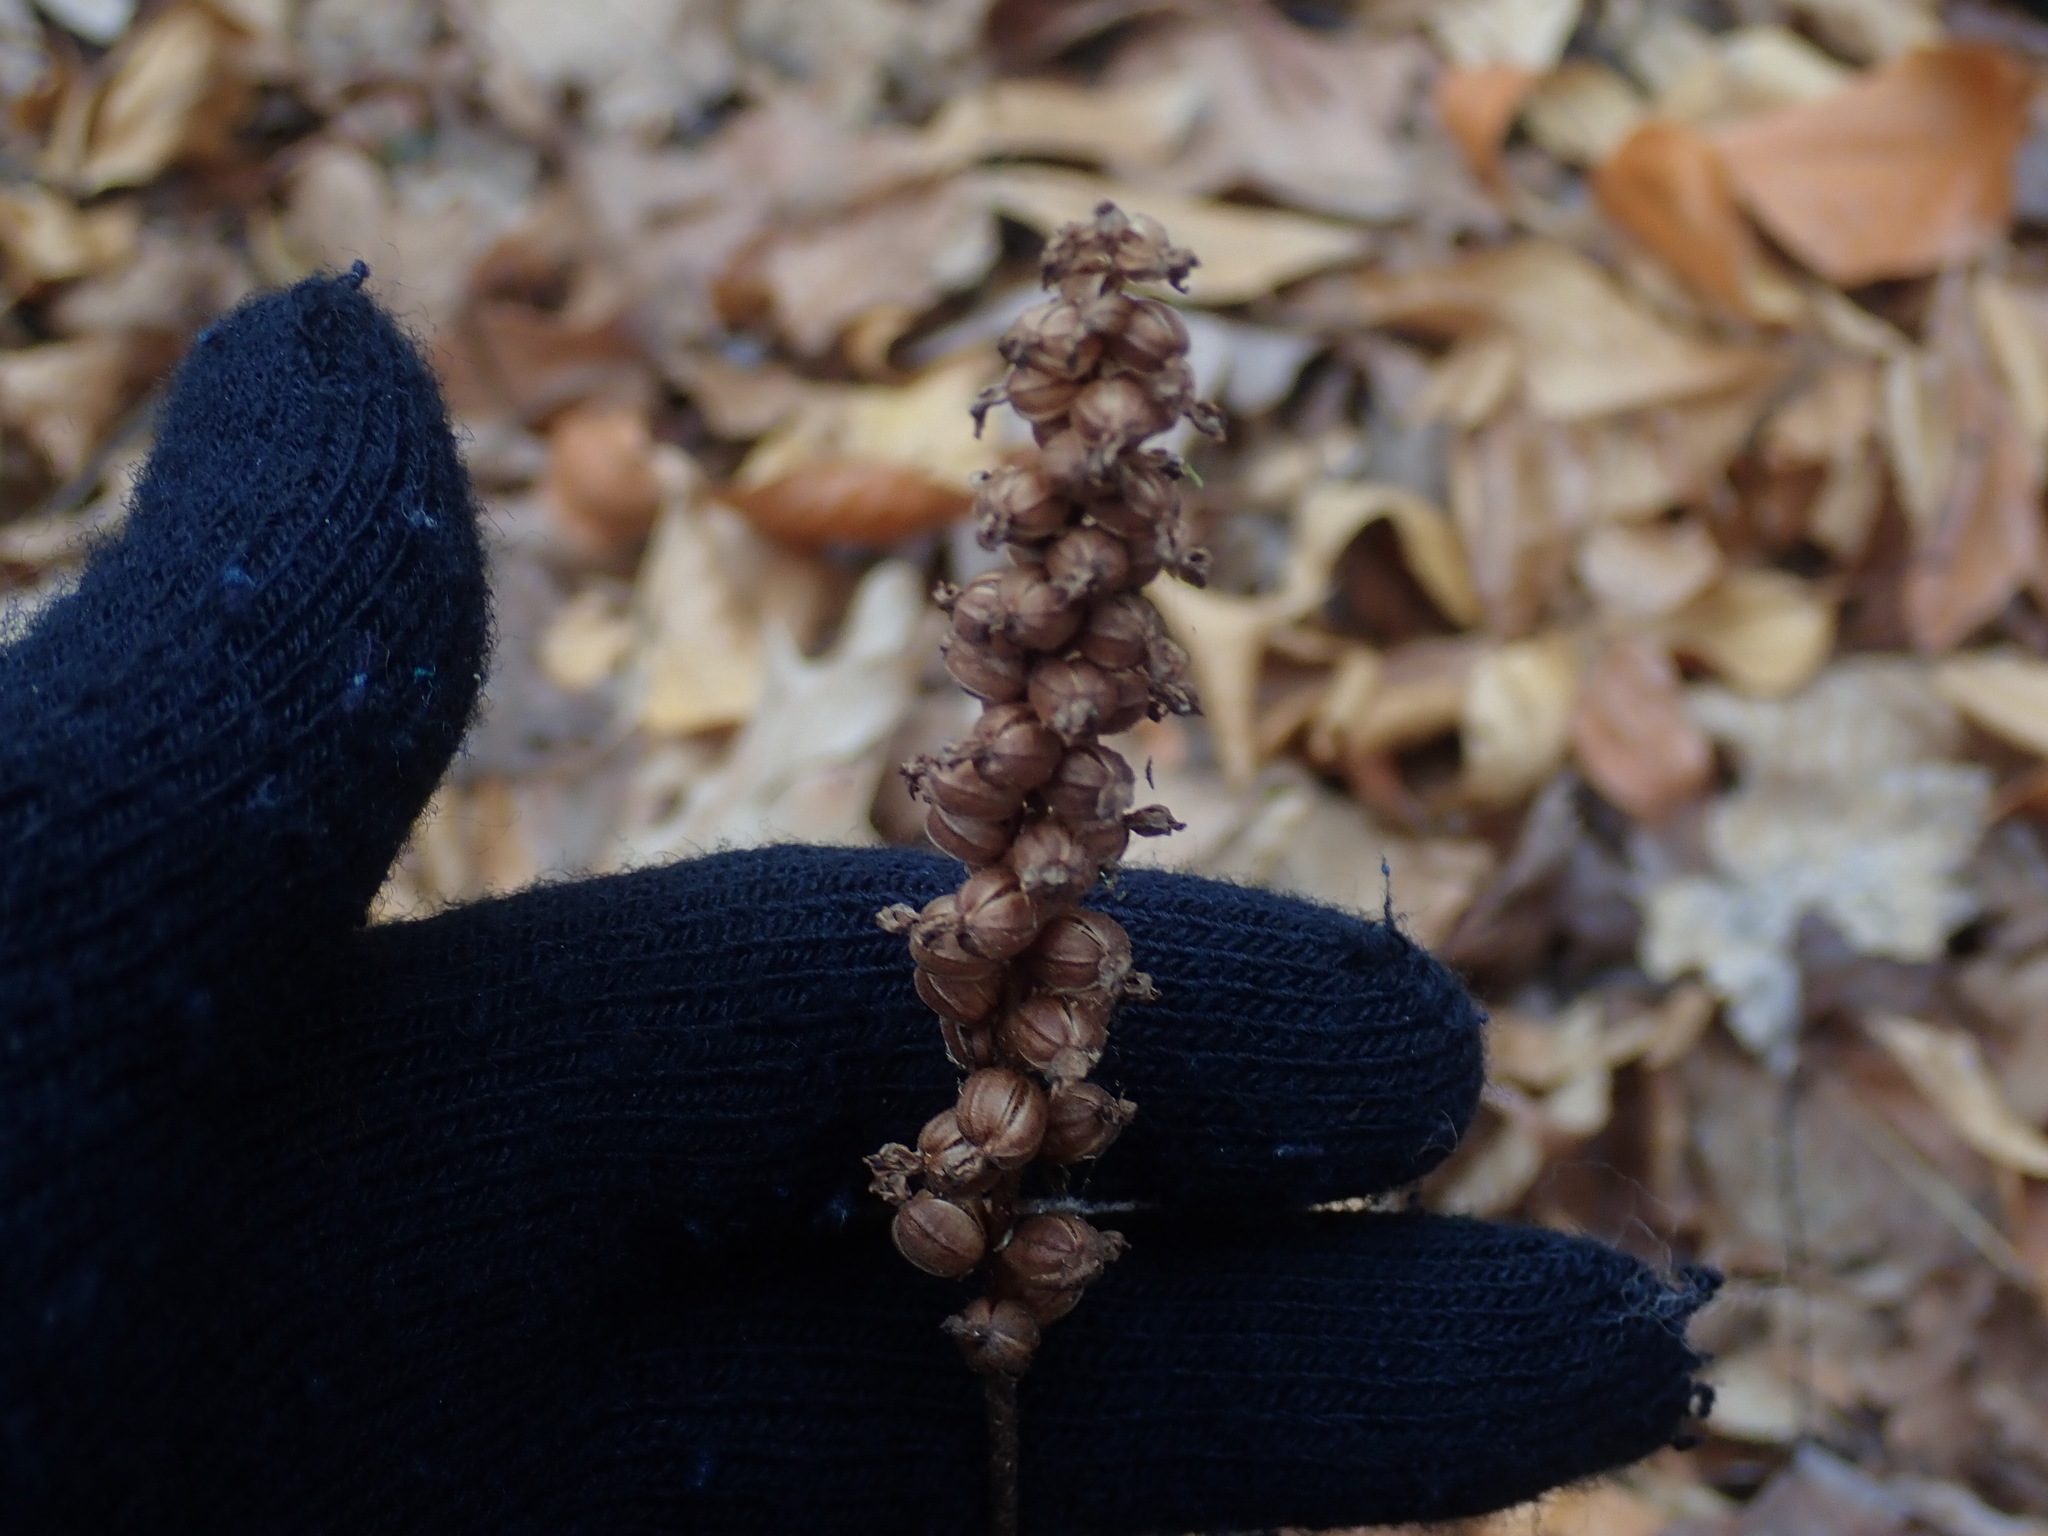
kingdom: Plantae
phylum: Tracheophyta
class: Liliopsida
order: Asparagales
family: Orchidaceae
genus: Goodyera
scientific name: Goodyera pubescens
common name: Downy rattlesnake-plantain
